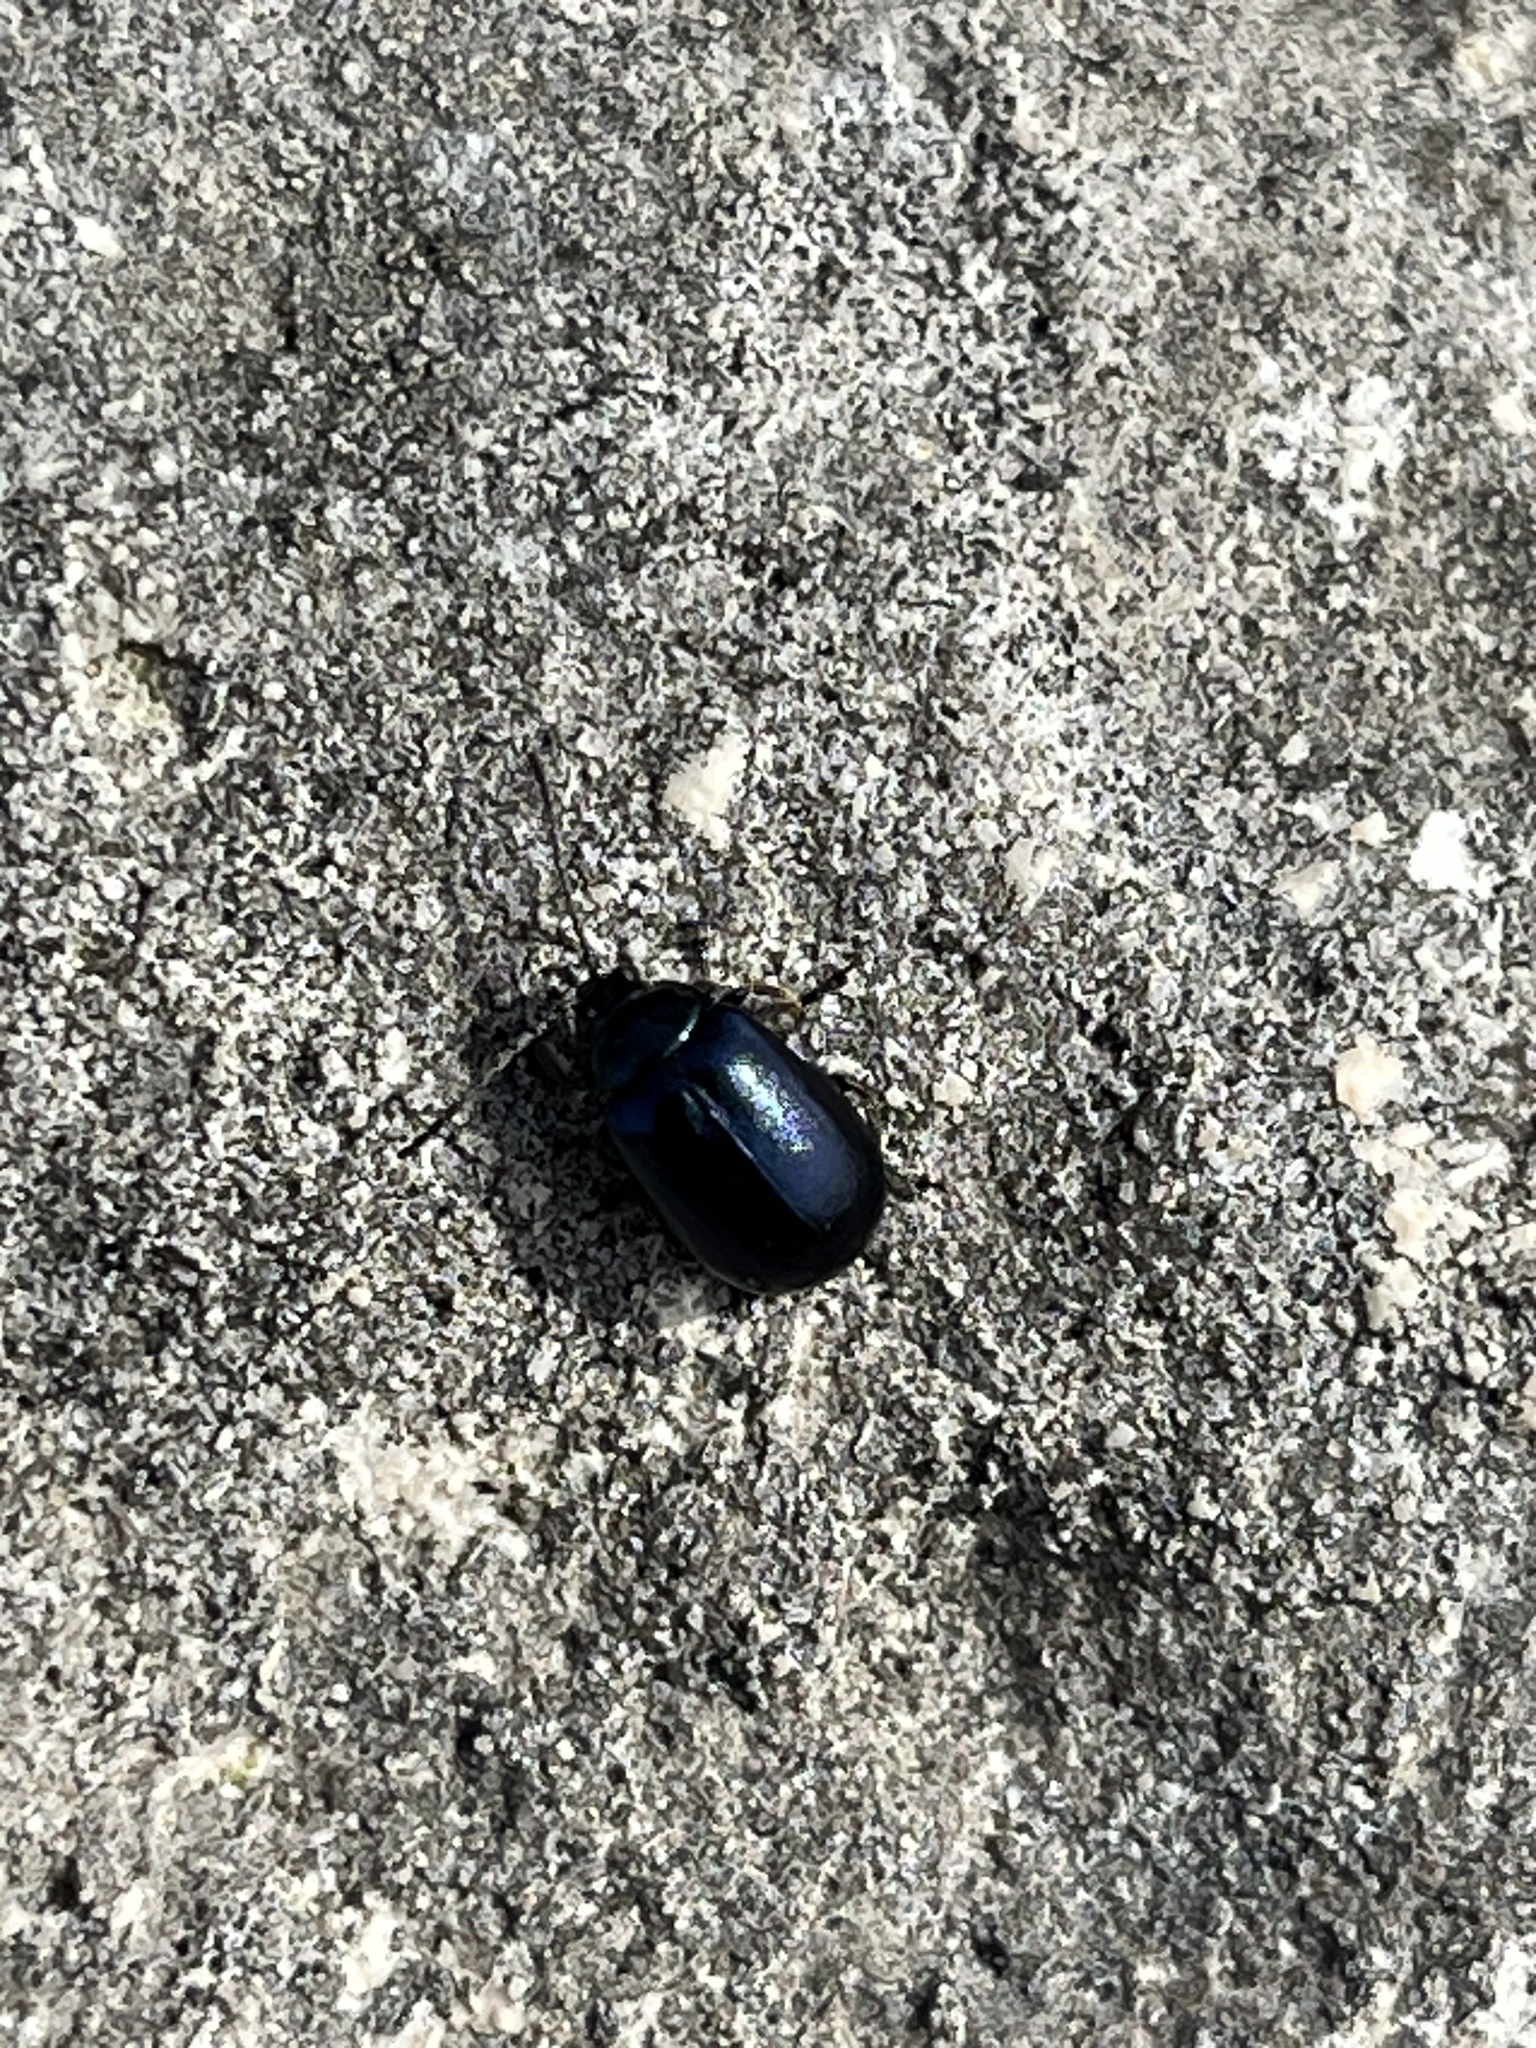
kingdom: Animalia
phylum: Arthropoda
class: Insecta
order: Coleoptera
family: Chrysomelidae
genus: Agelastica
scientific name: Agelastica alni
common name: Alder leaf beetle
